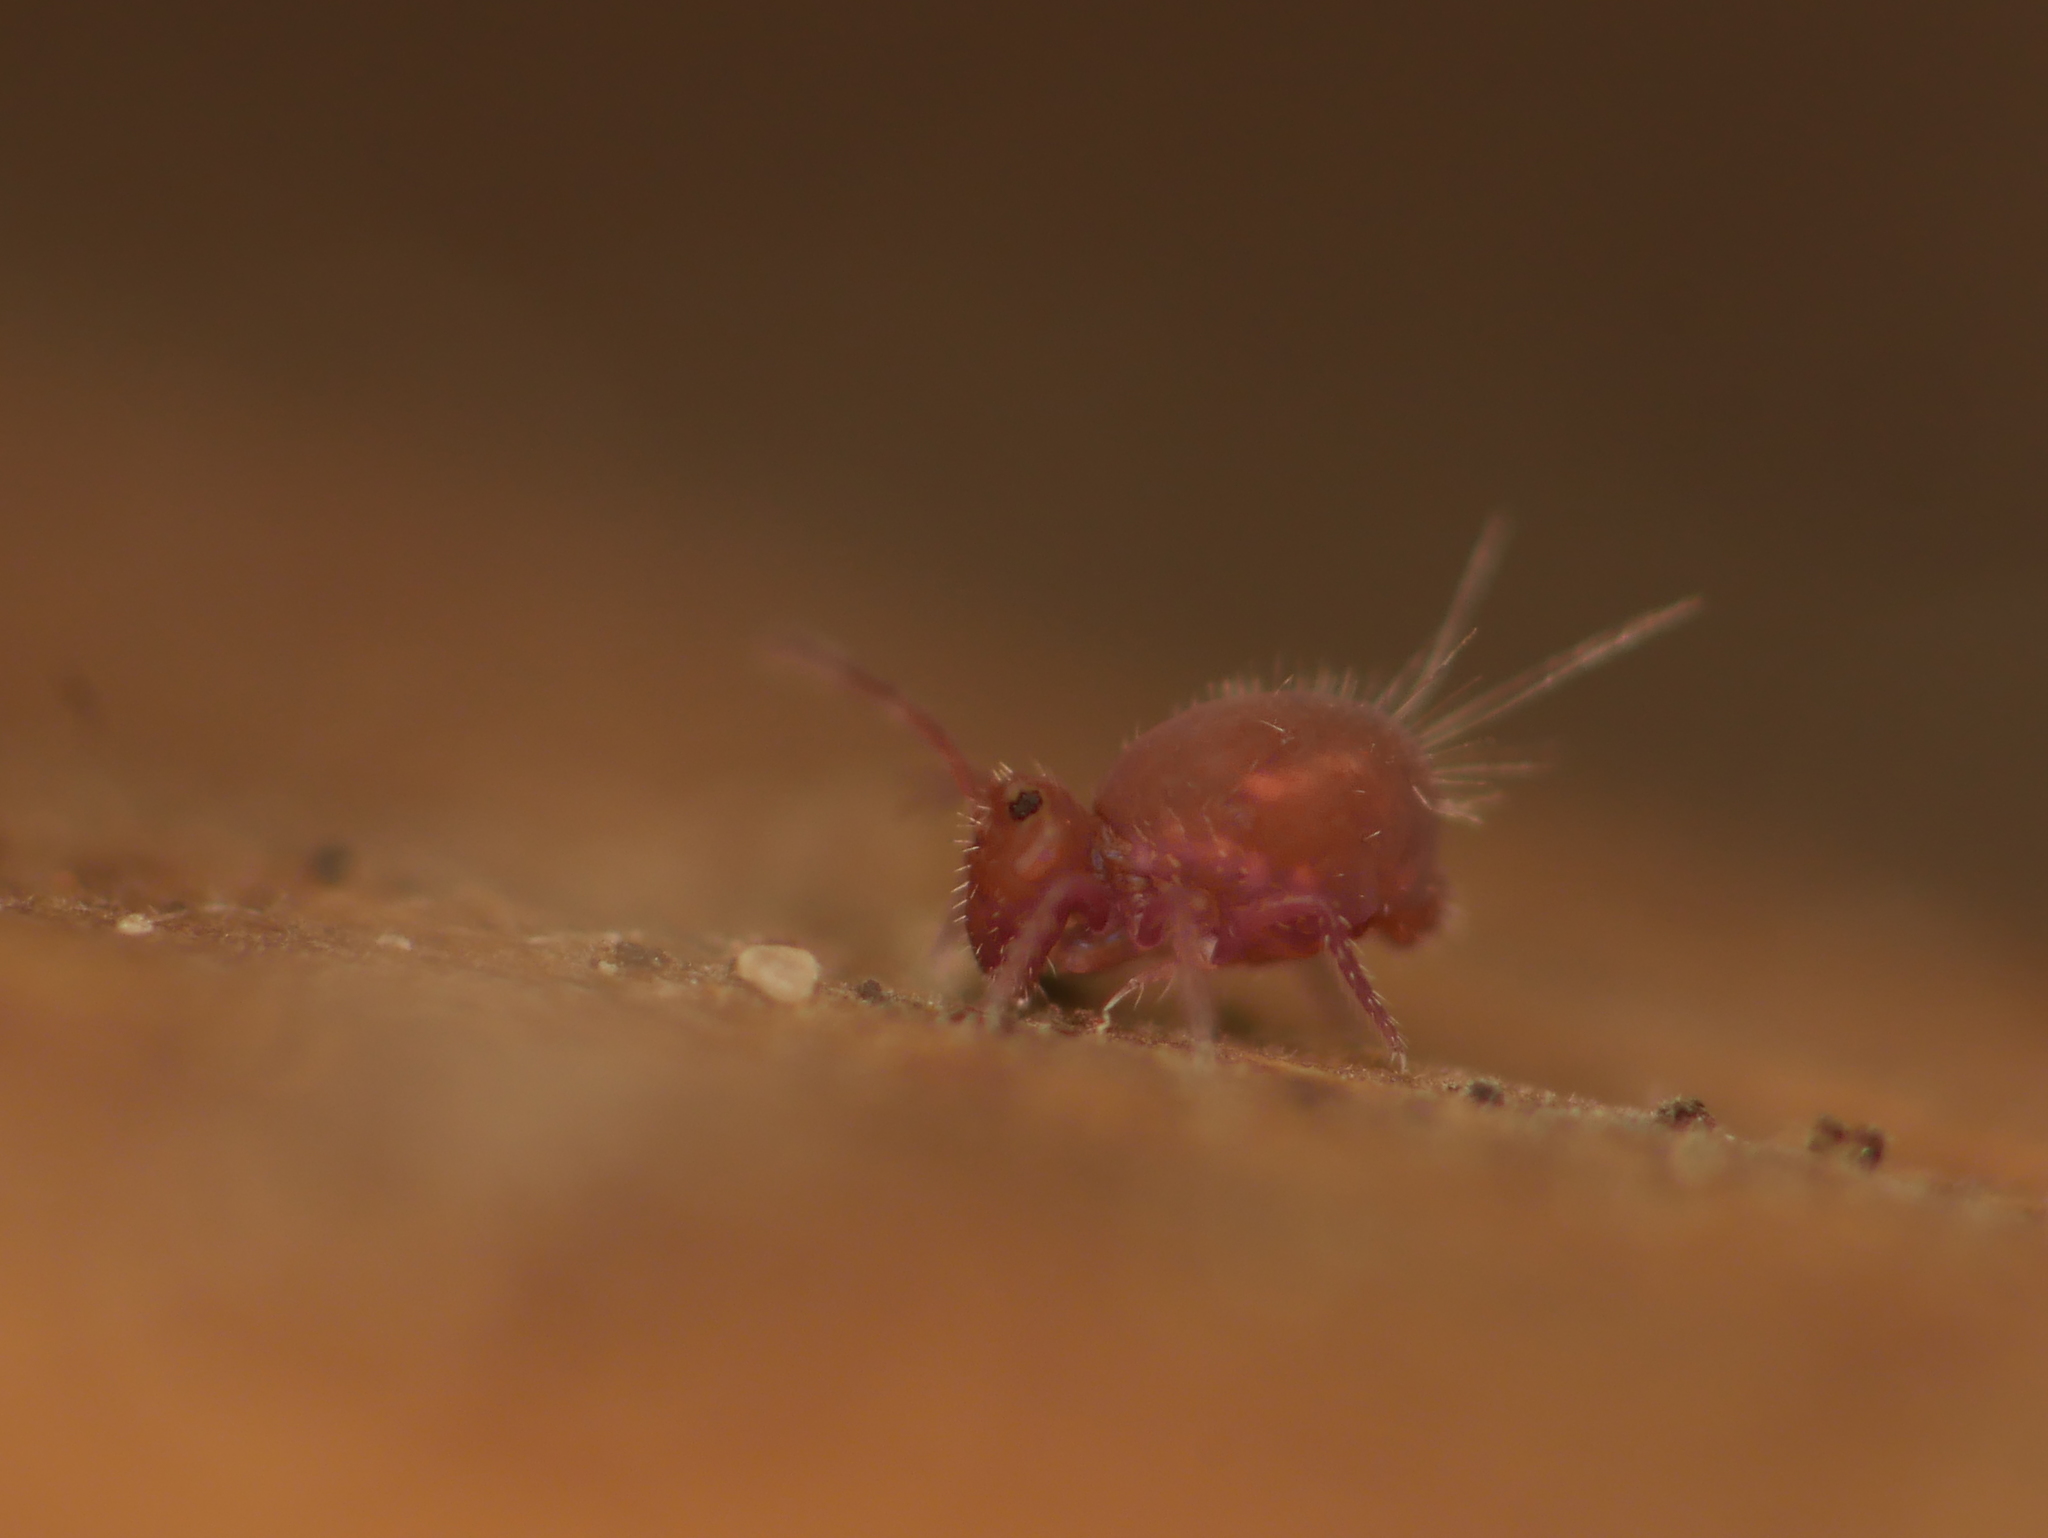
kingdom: Animalia
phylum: Arthropoda
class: Collembola
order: Symphypleona
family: Dicyrtomidae
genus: Dicyrtoma
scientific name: Dicyrtoma fusca
